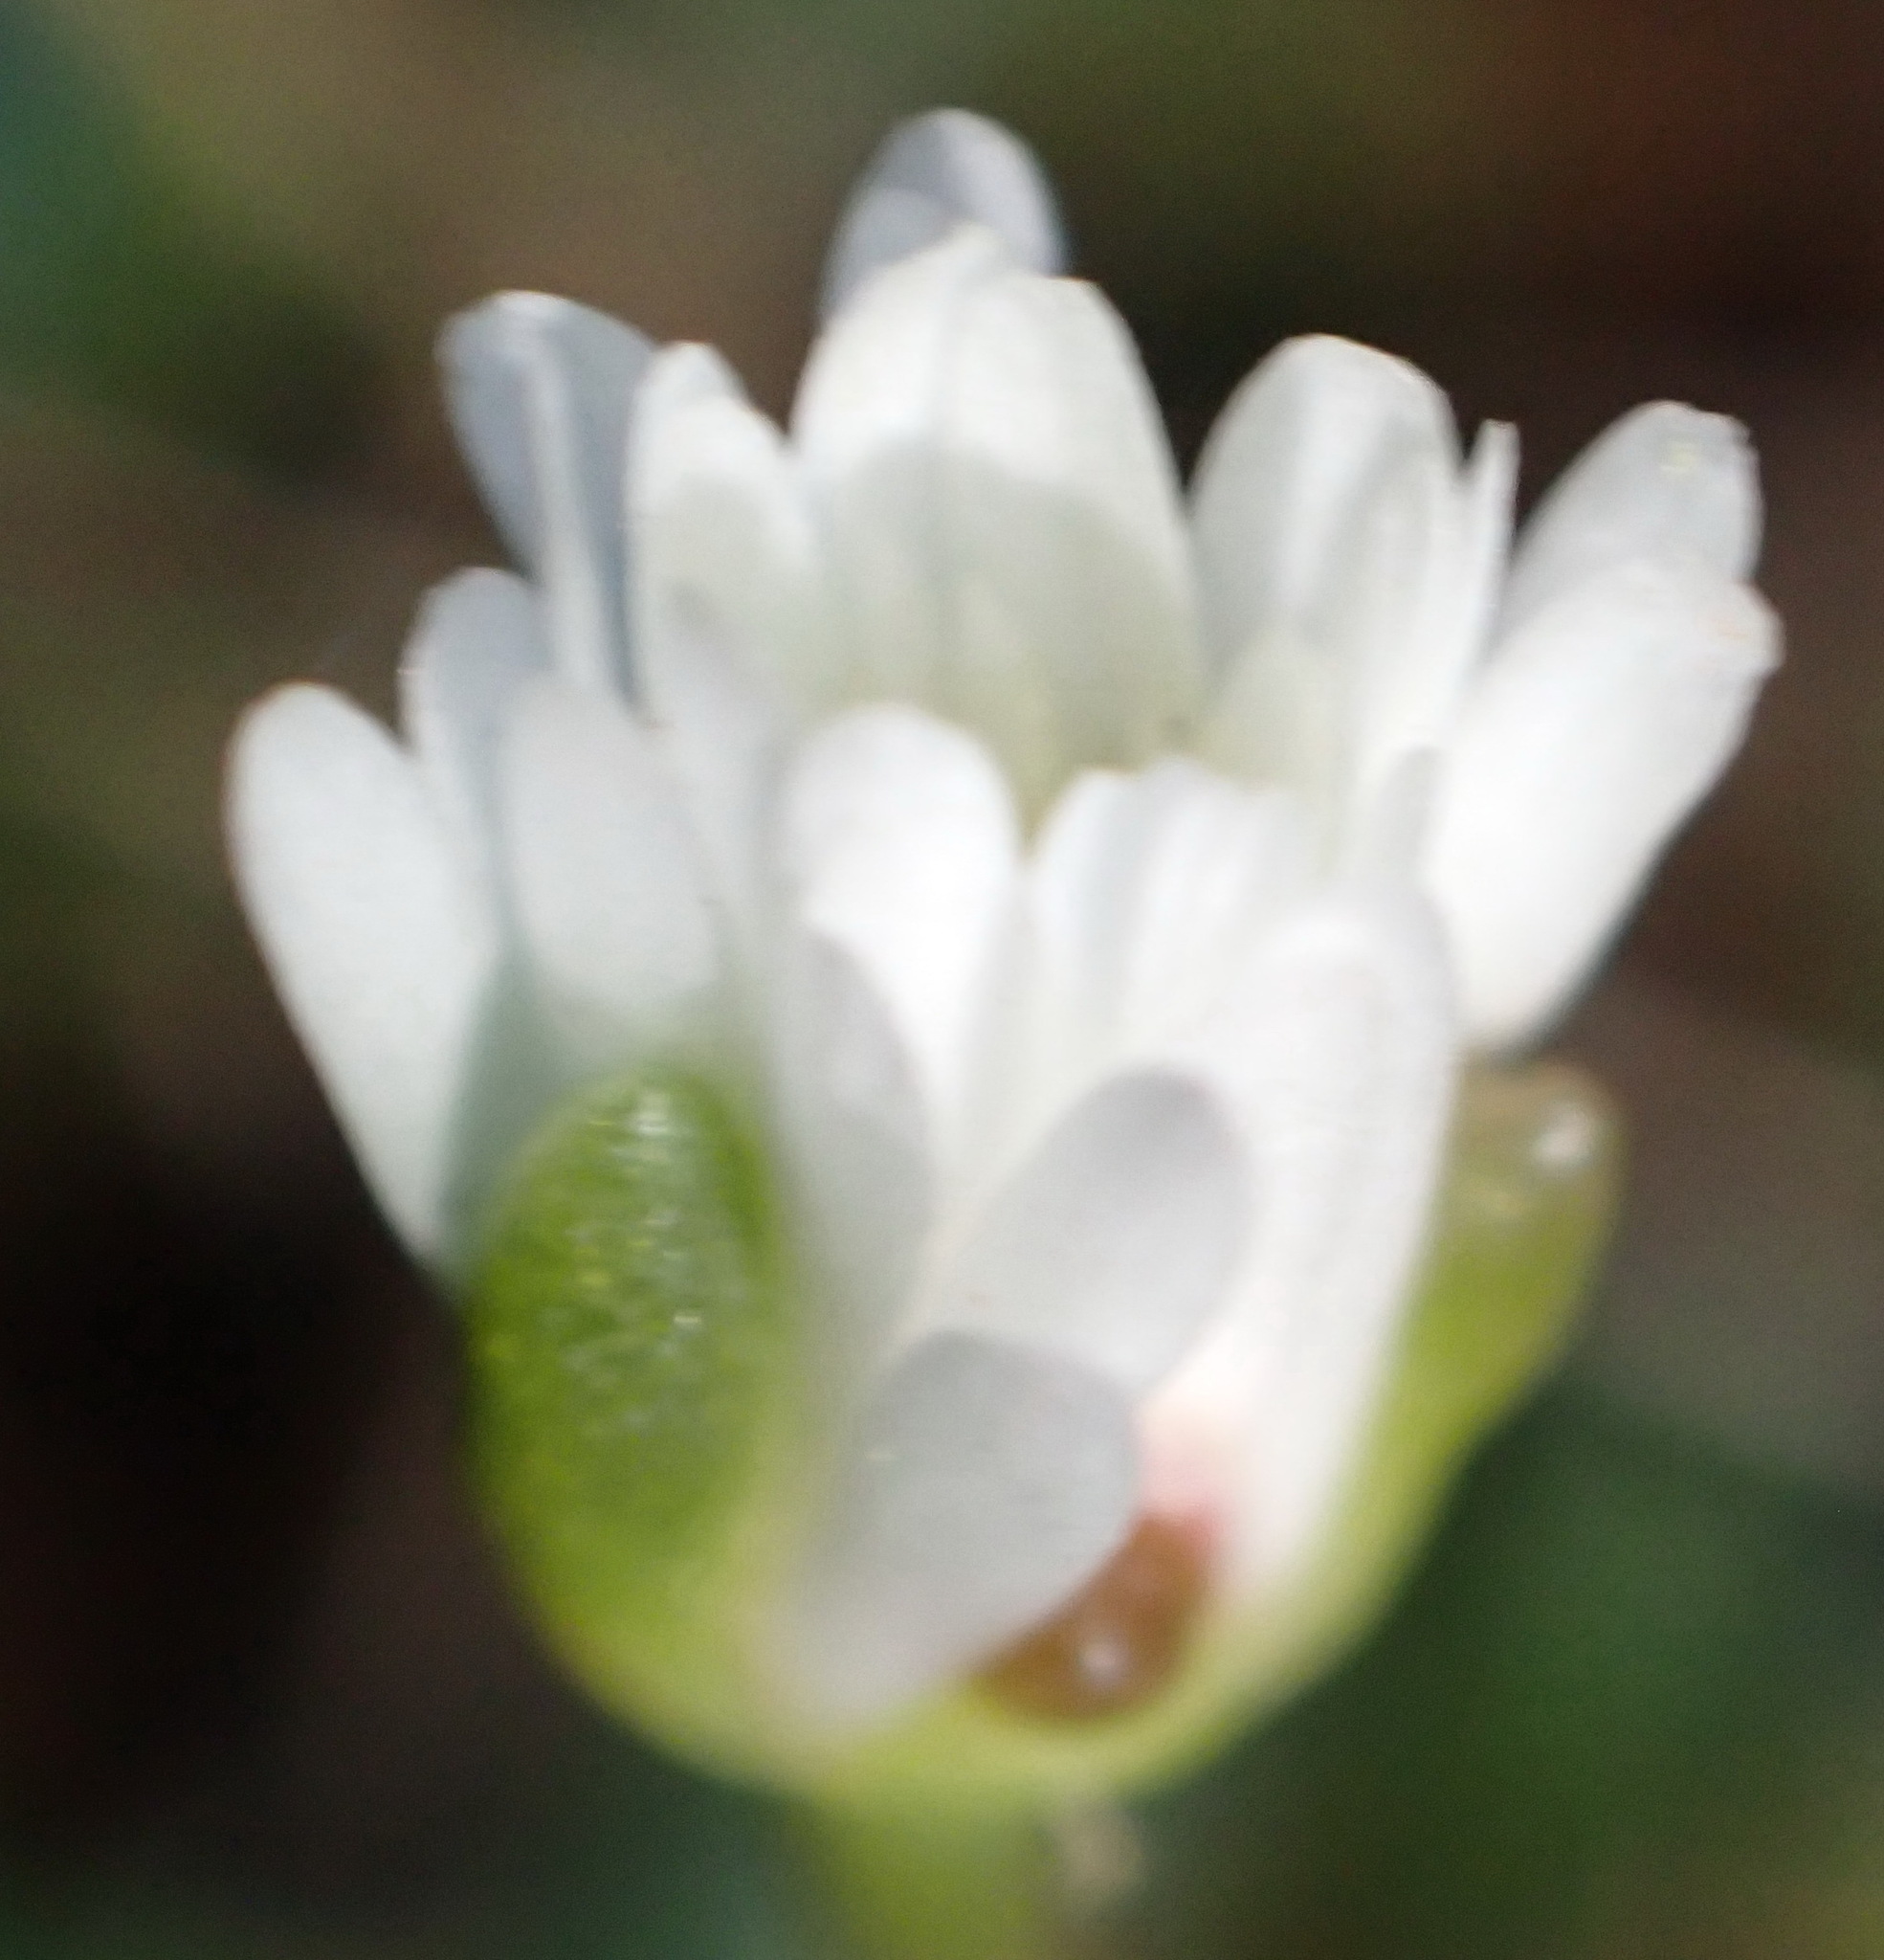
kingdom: Plantae
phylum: Tracheophyta
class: Magnoliopsida
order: Caryophyllales
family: Aizoaceae
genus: Delosperma
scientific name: Delosperma concavum
